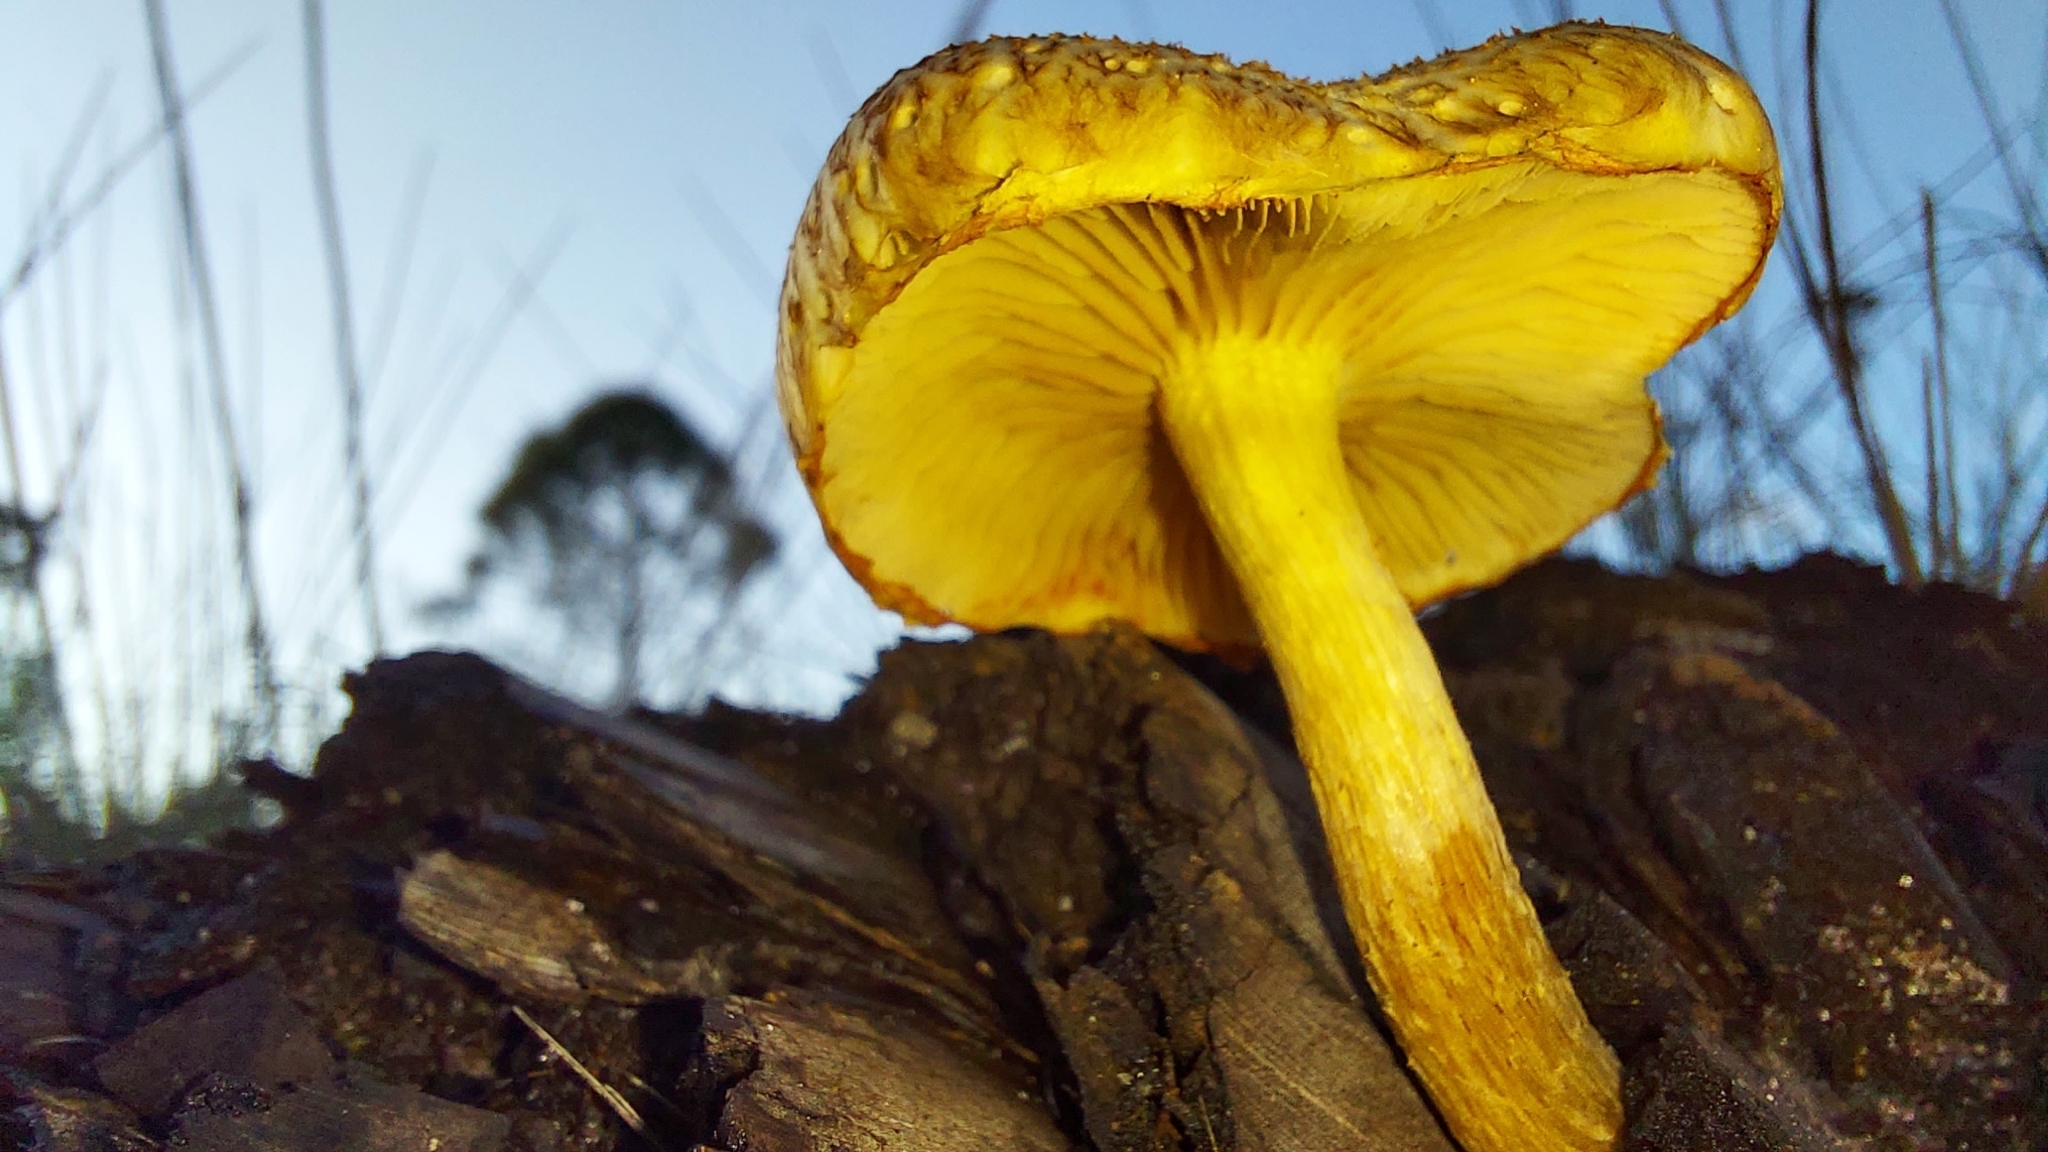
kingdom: Fungi
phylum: Basidiomycota
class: Agaricomycetes
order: Agaricales
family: Hymenogastraceae
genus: Gymnopilus
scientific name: Gymnopilus palmicola
